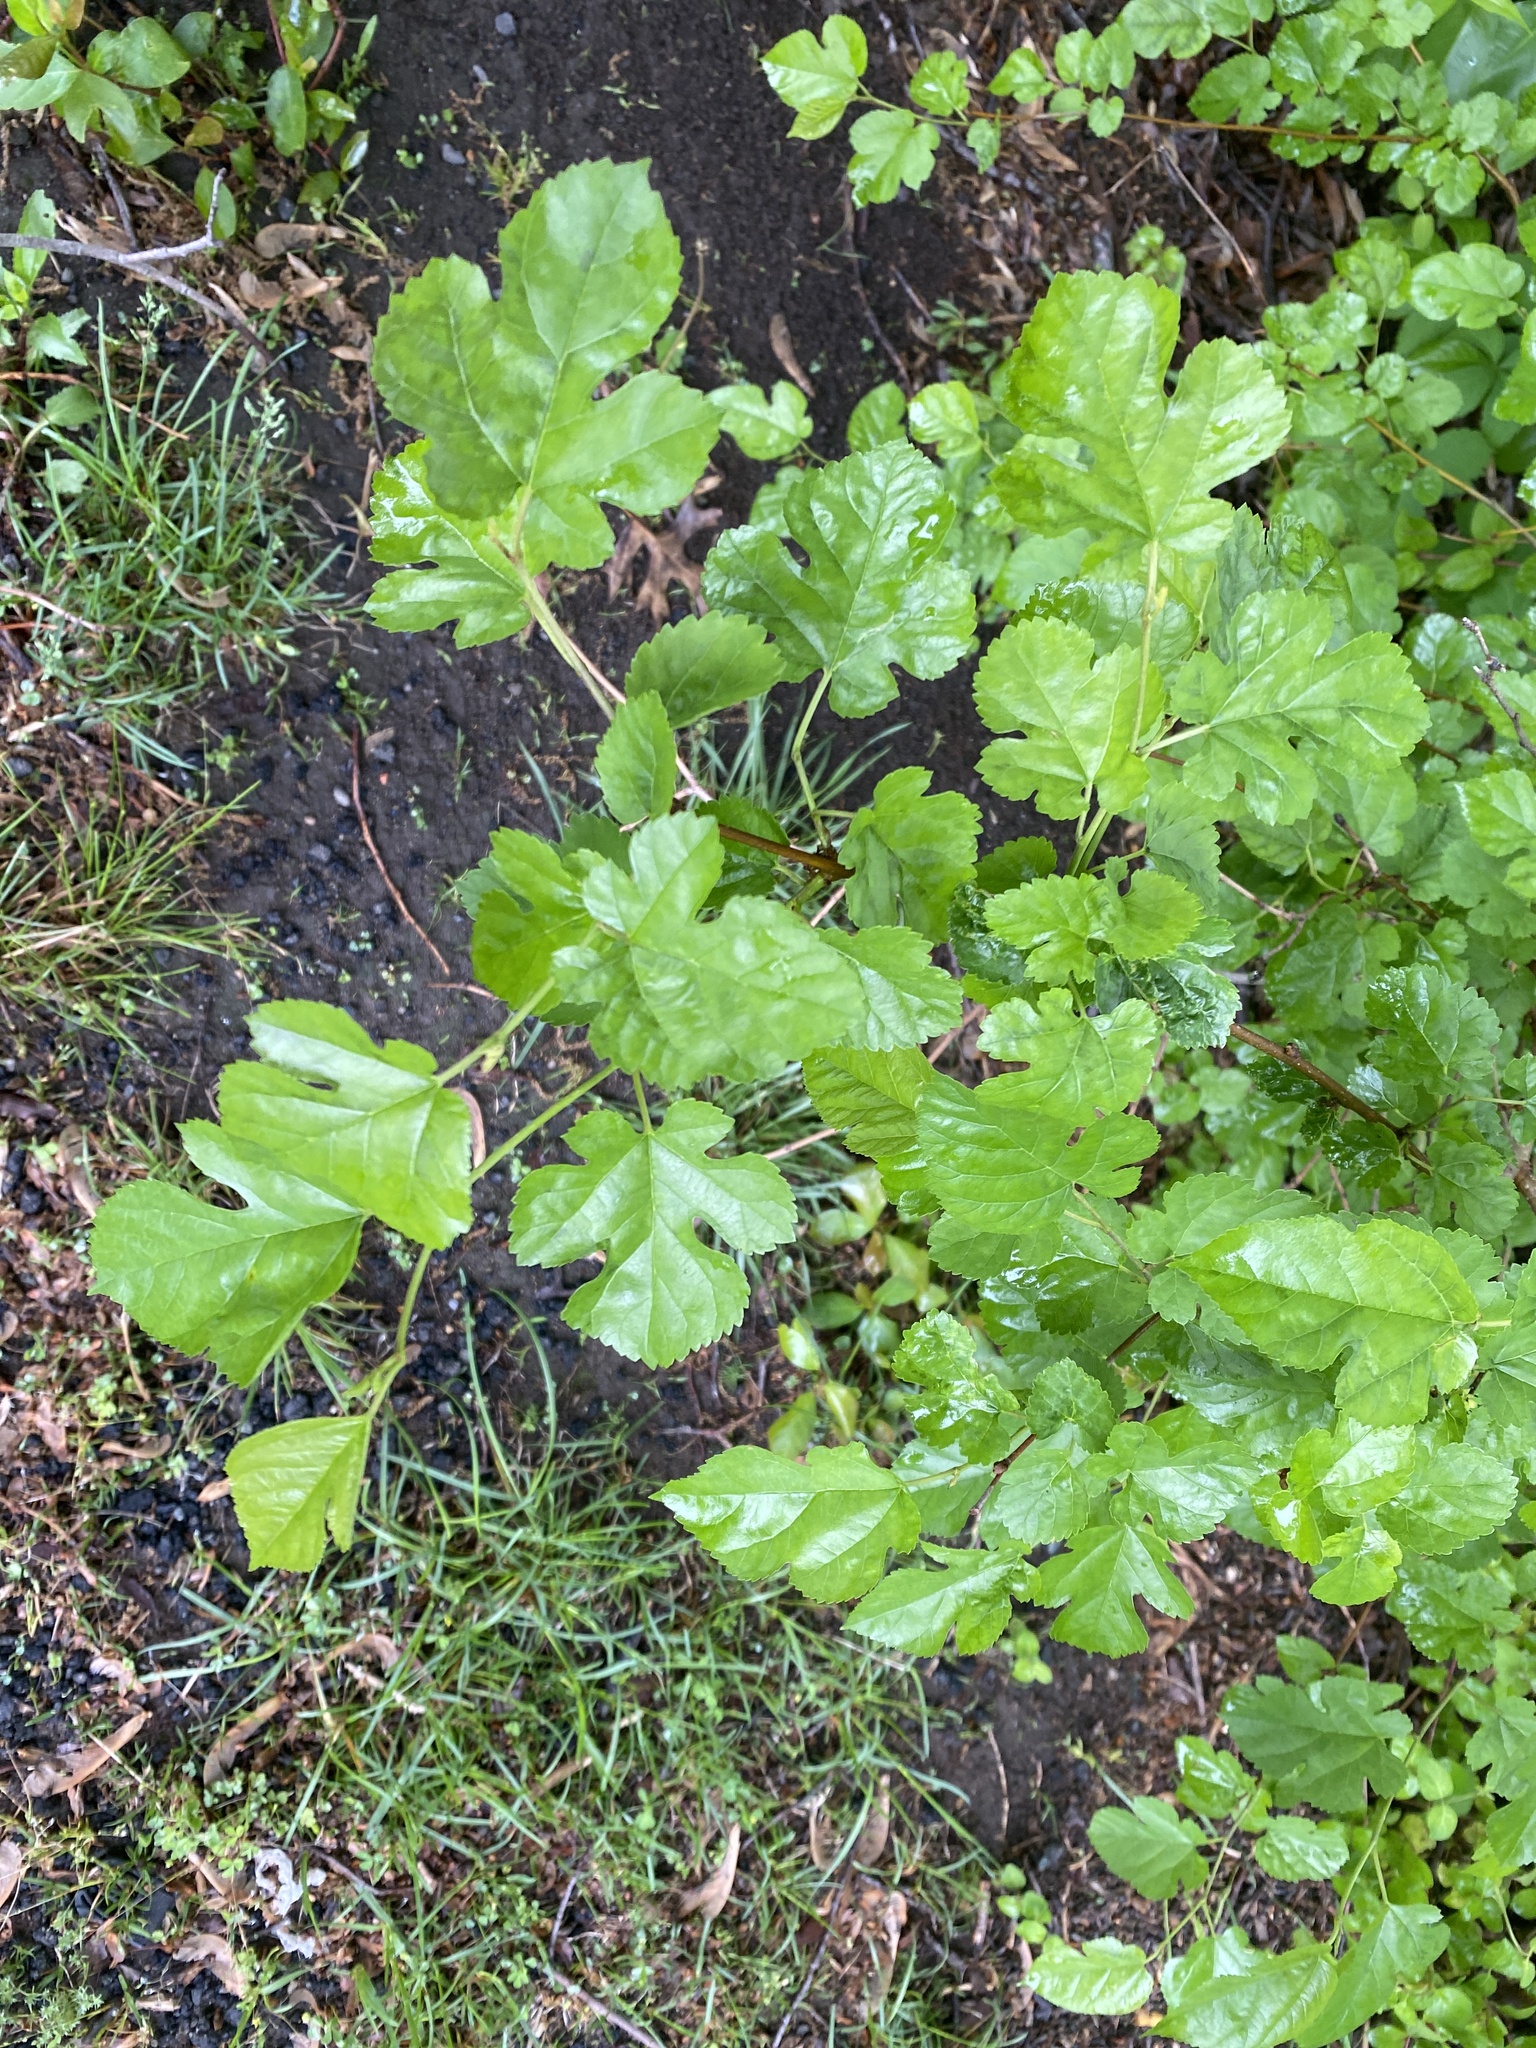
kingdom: Plantae
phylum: Tracheophyta
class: Magnoliopsida
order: Rosales
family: Moraceae
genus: Morus
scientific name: Morus alba
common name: White mulberry
